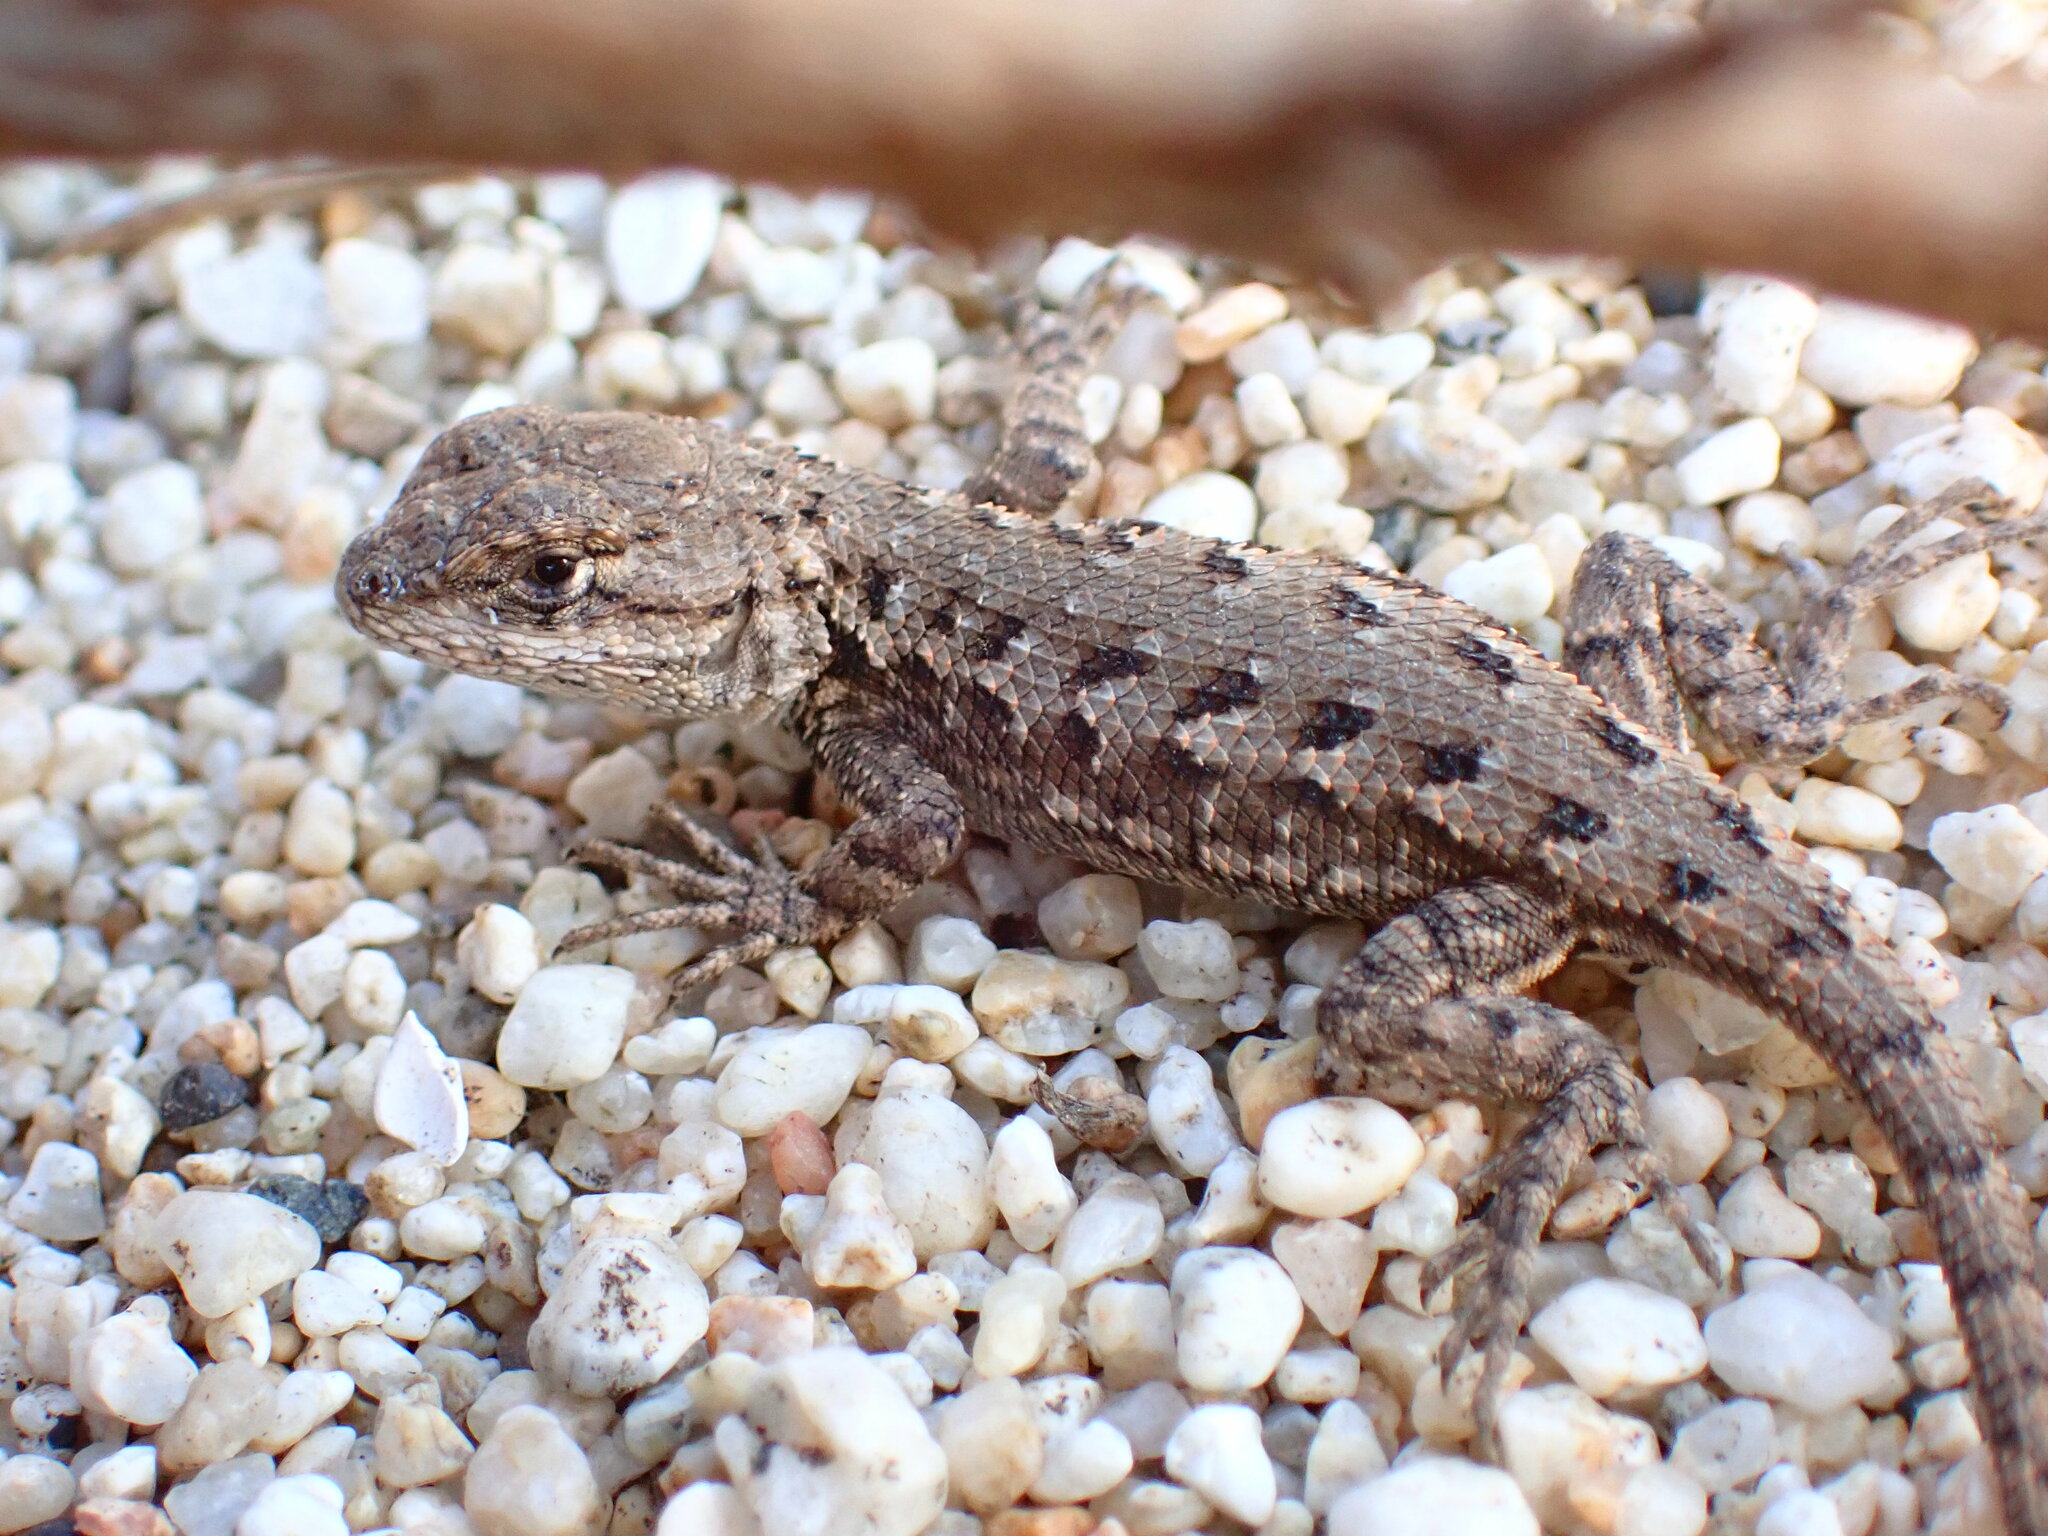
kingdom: Animalia
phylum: Chordata
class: Squamata
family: Phrynosomatidae
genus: Sceloporus
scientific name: Sceloporus occidentalis
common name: Western fence lizard
